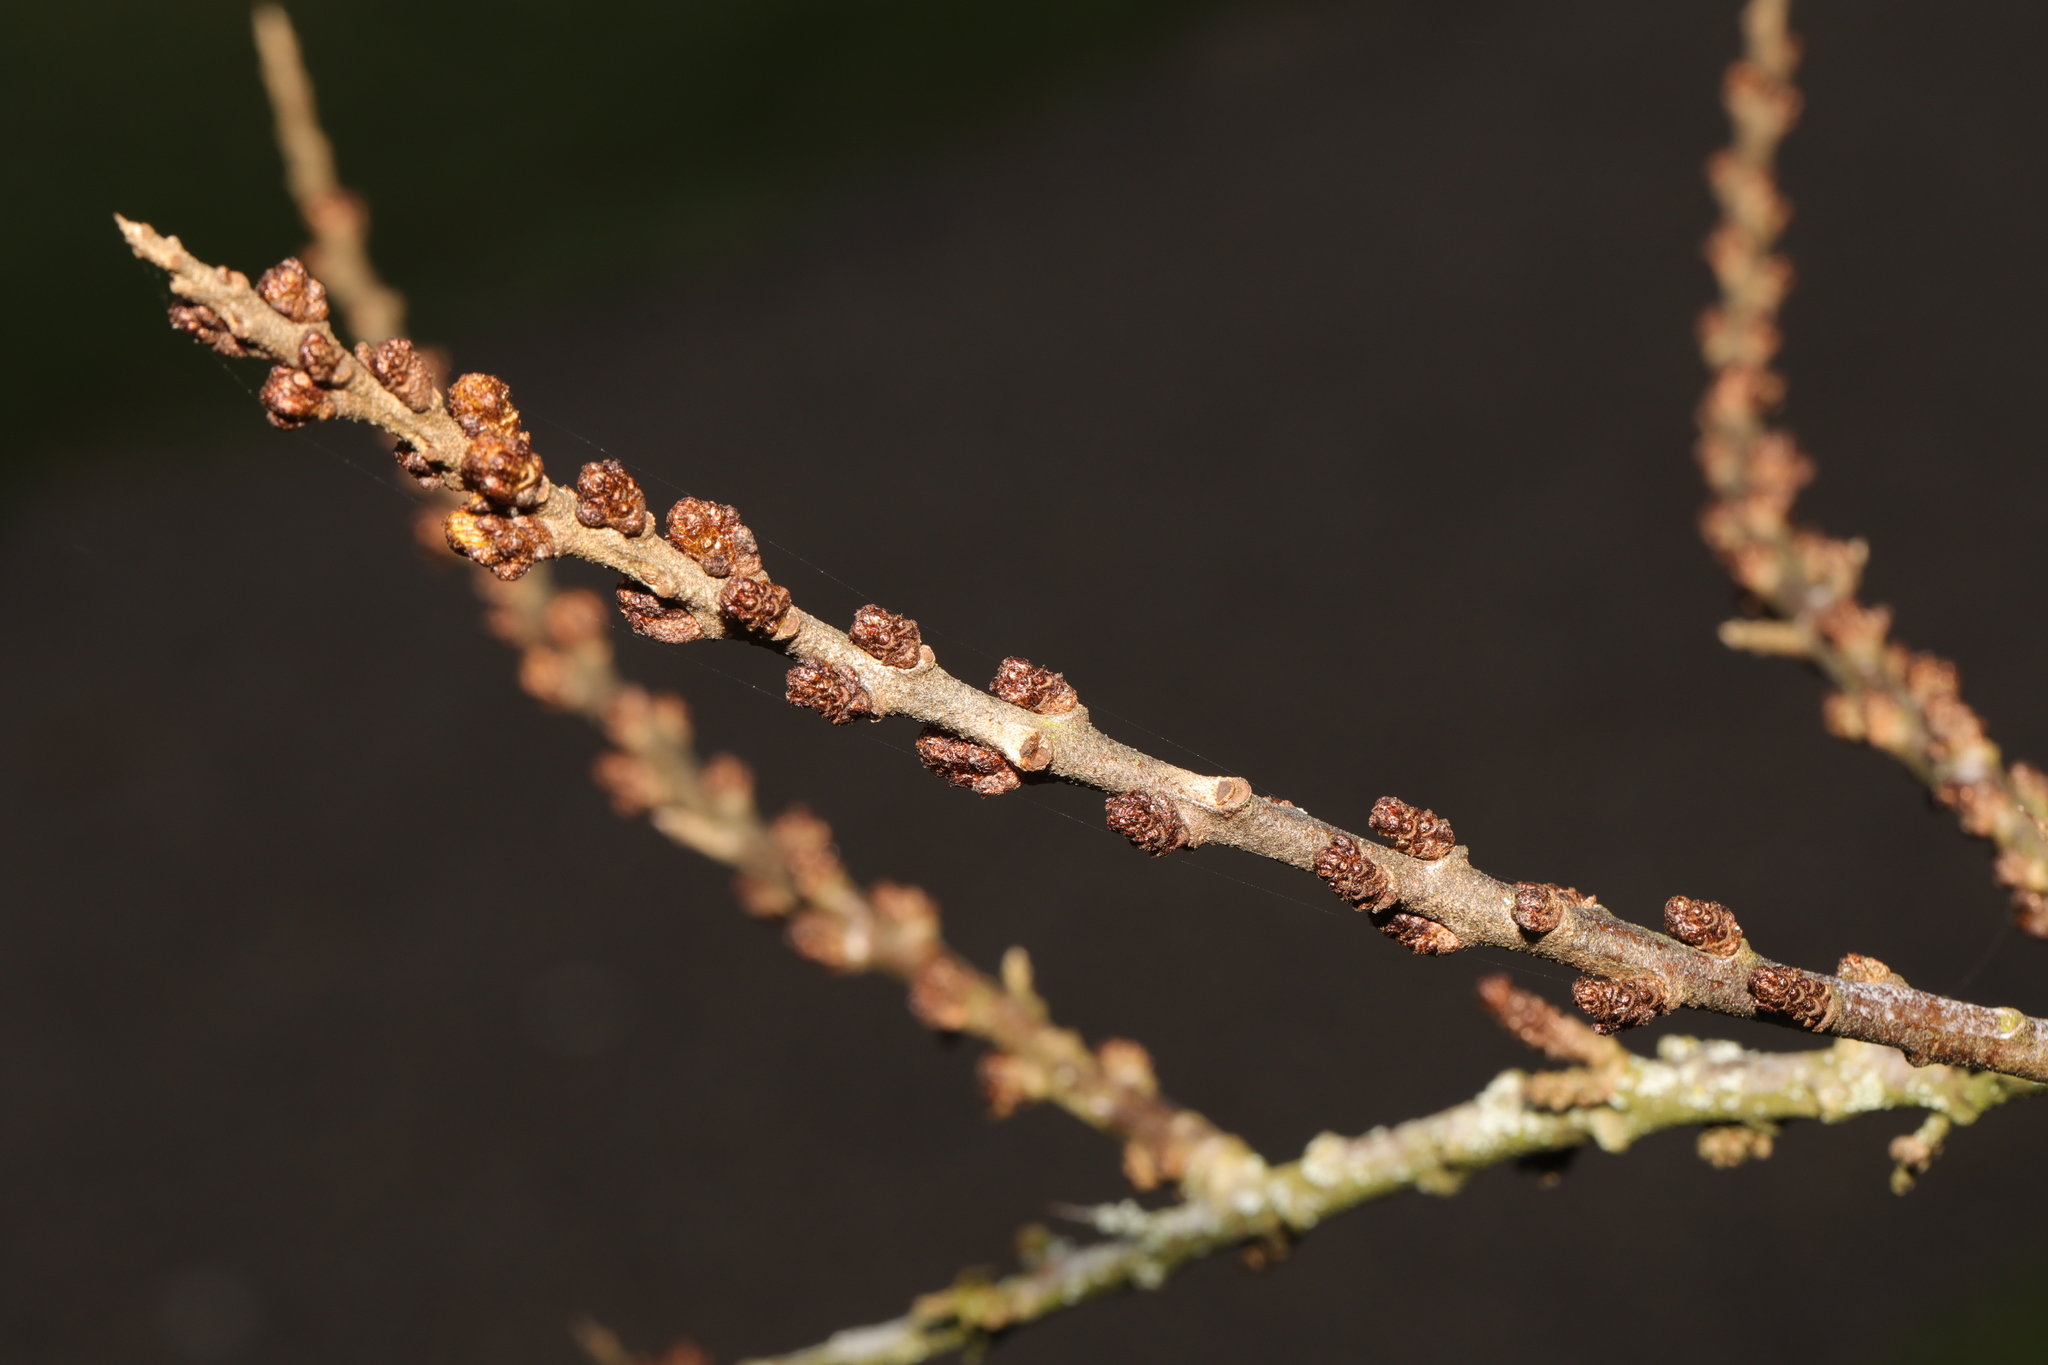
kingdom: Plantae
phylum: Tracheophyta
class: Magnoliopsida
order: Rosales
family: Elaeagnaceae
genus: Hippophae
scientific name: Hippophae rhamnoides
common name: Sea-buckthorn
